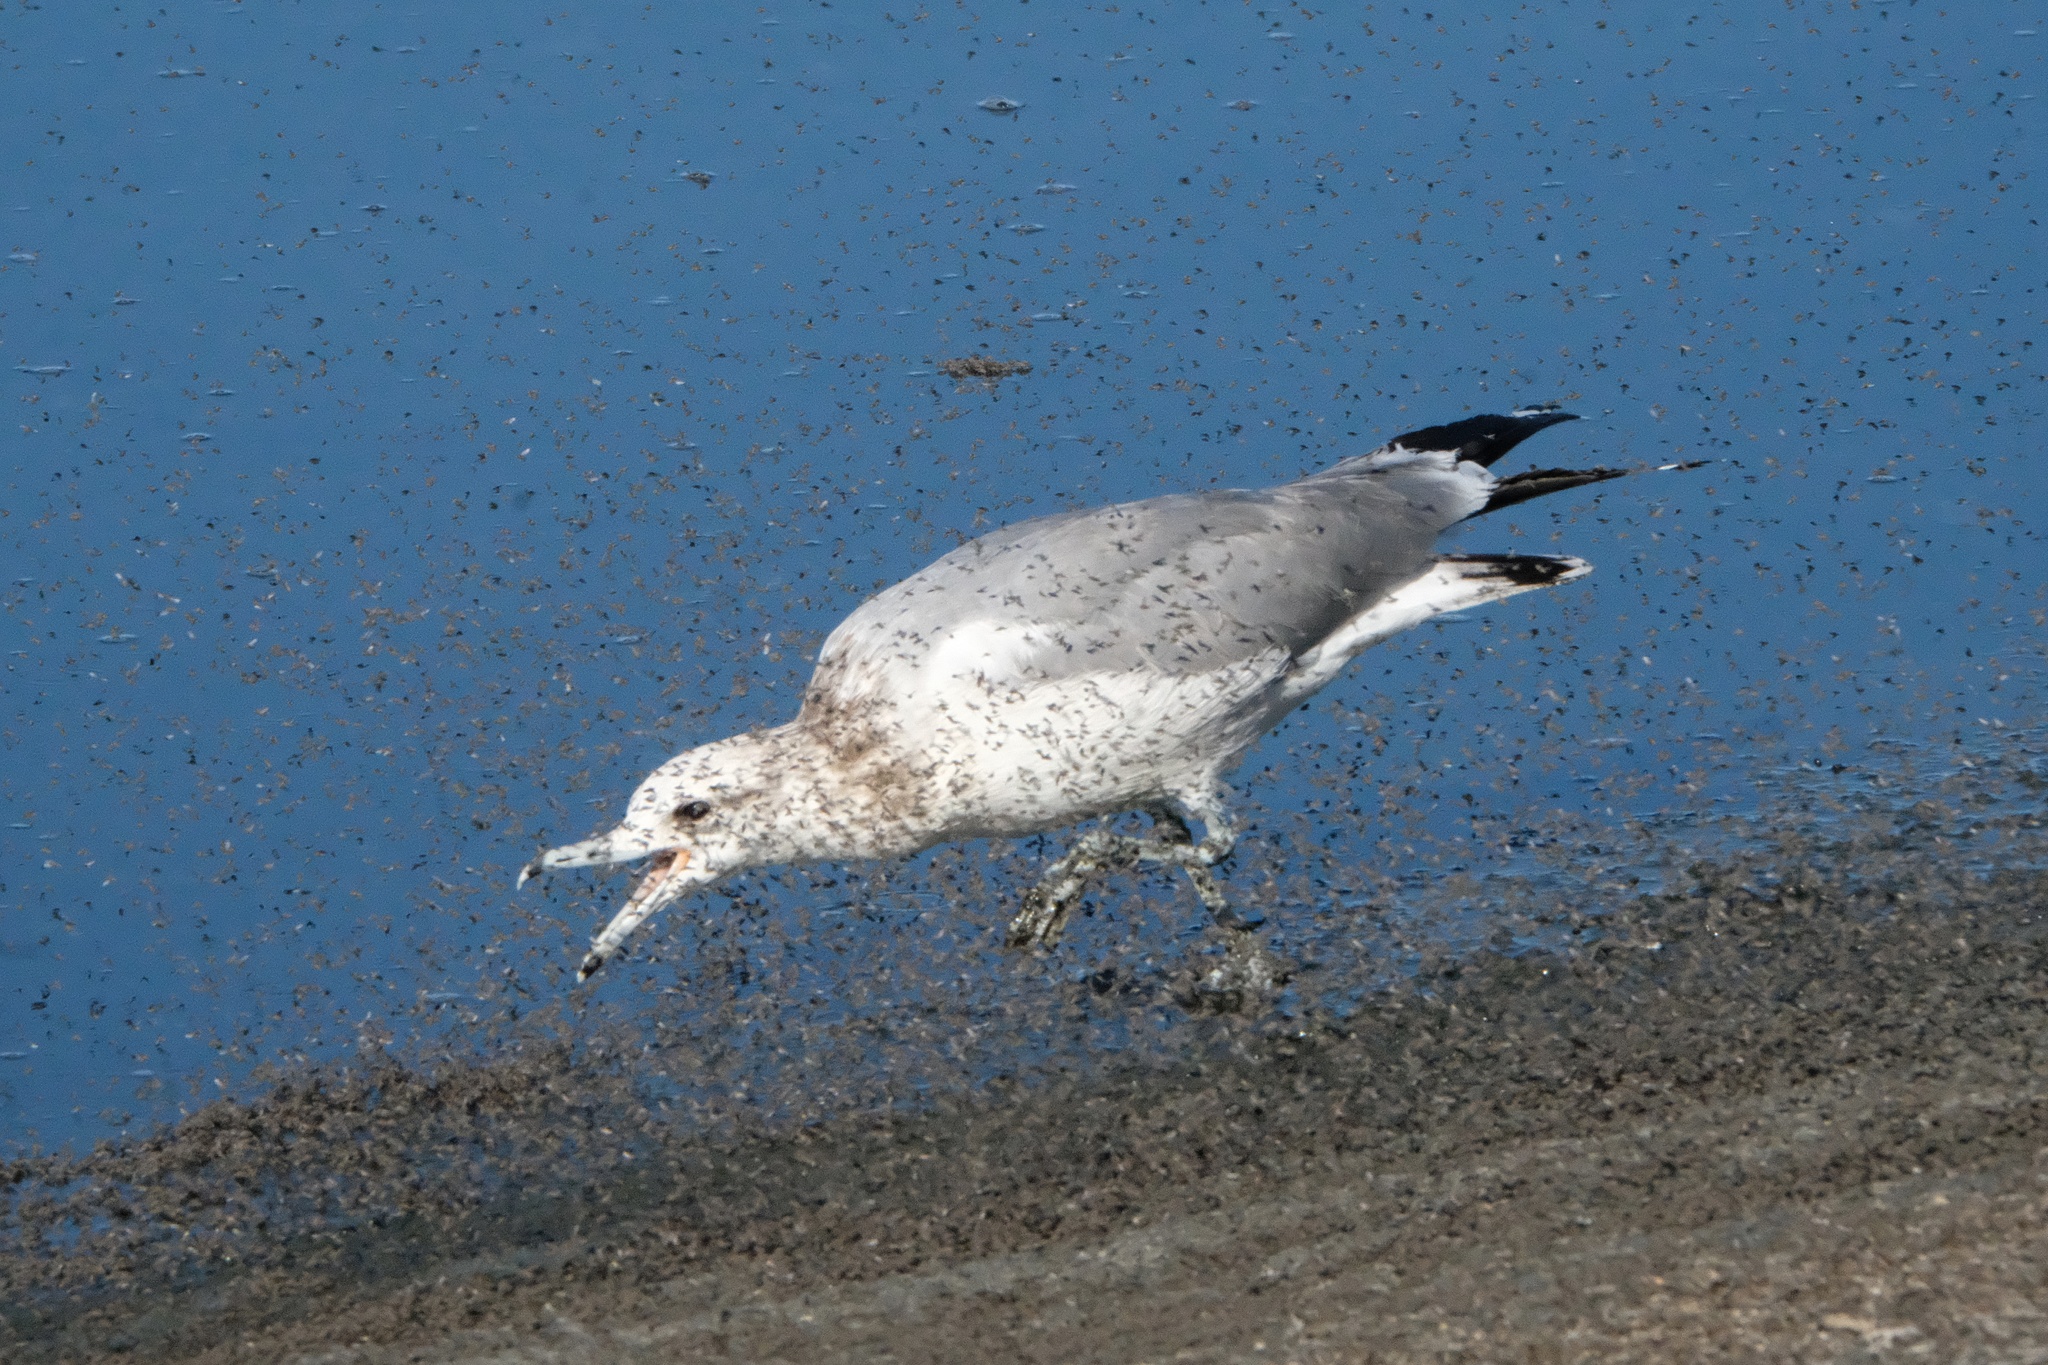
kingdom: Animalia
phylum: Chordata
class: Aves
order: Charadriiformes
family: Laridae
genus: Larus
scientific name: Larus californicus
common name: California gull
